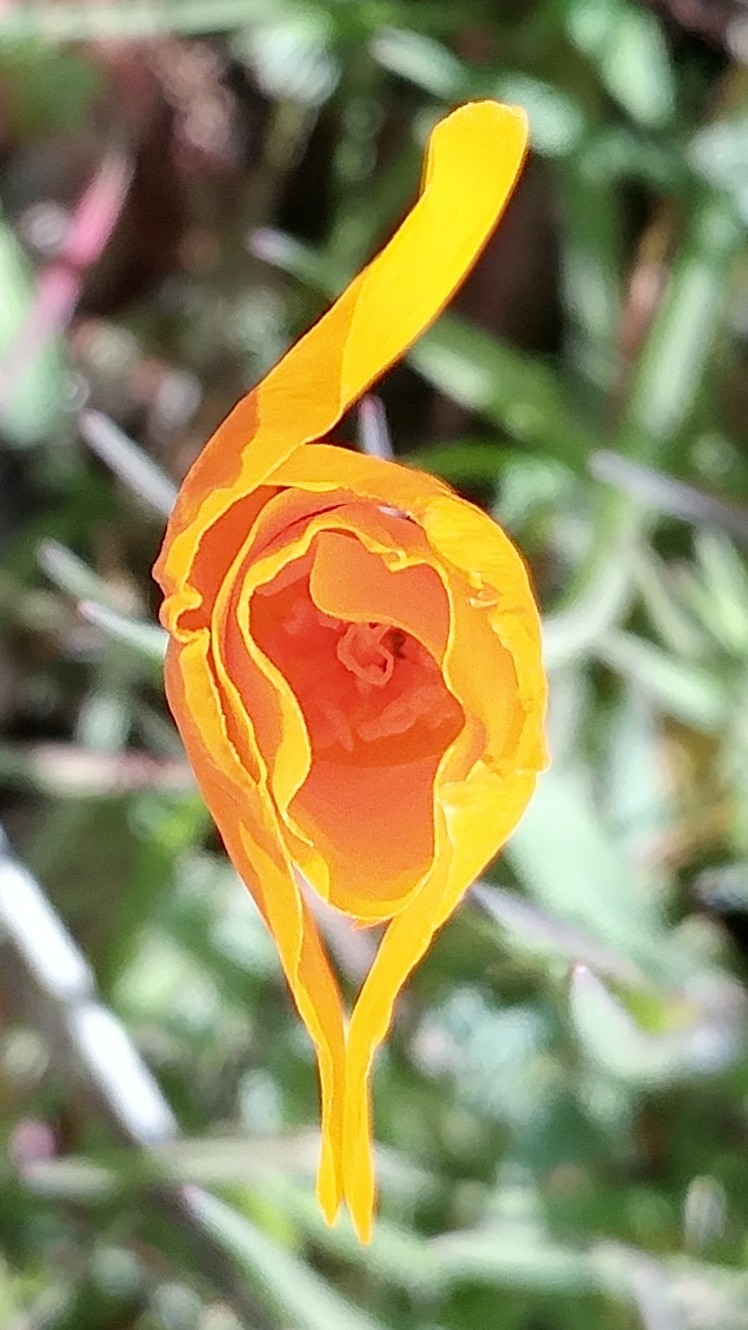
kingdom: Plantae
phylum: Tracheophyta
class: Magnoliopsida
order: Ranunculales
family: Papaveraceae
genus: Eschscholzia
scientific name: Eschscholzia caespitosa
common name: Tufted california-poppy
